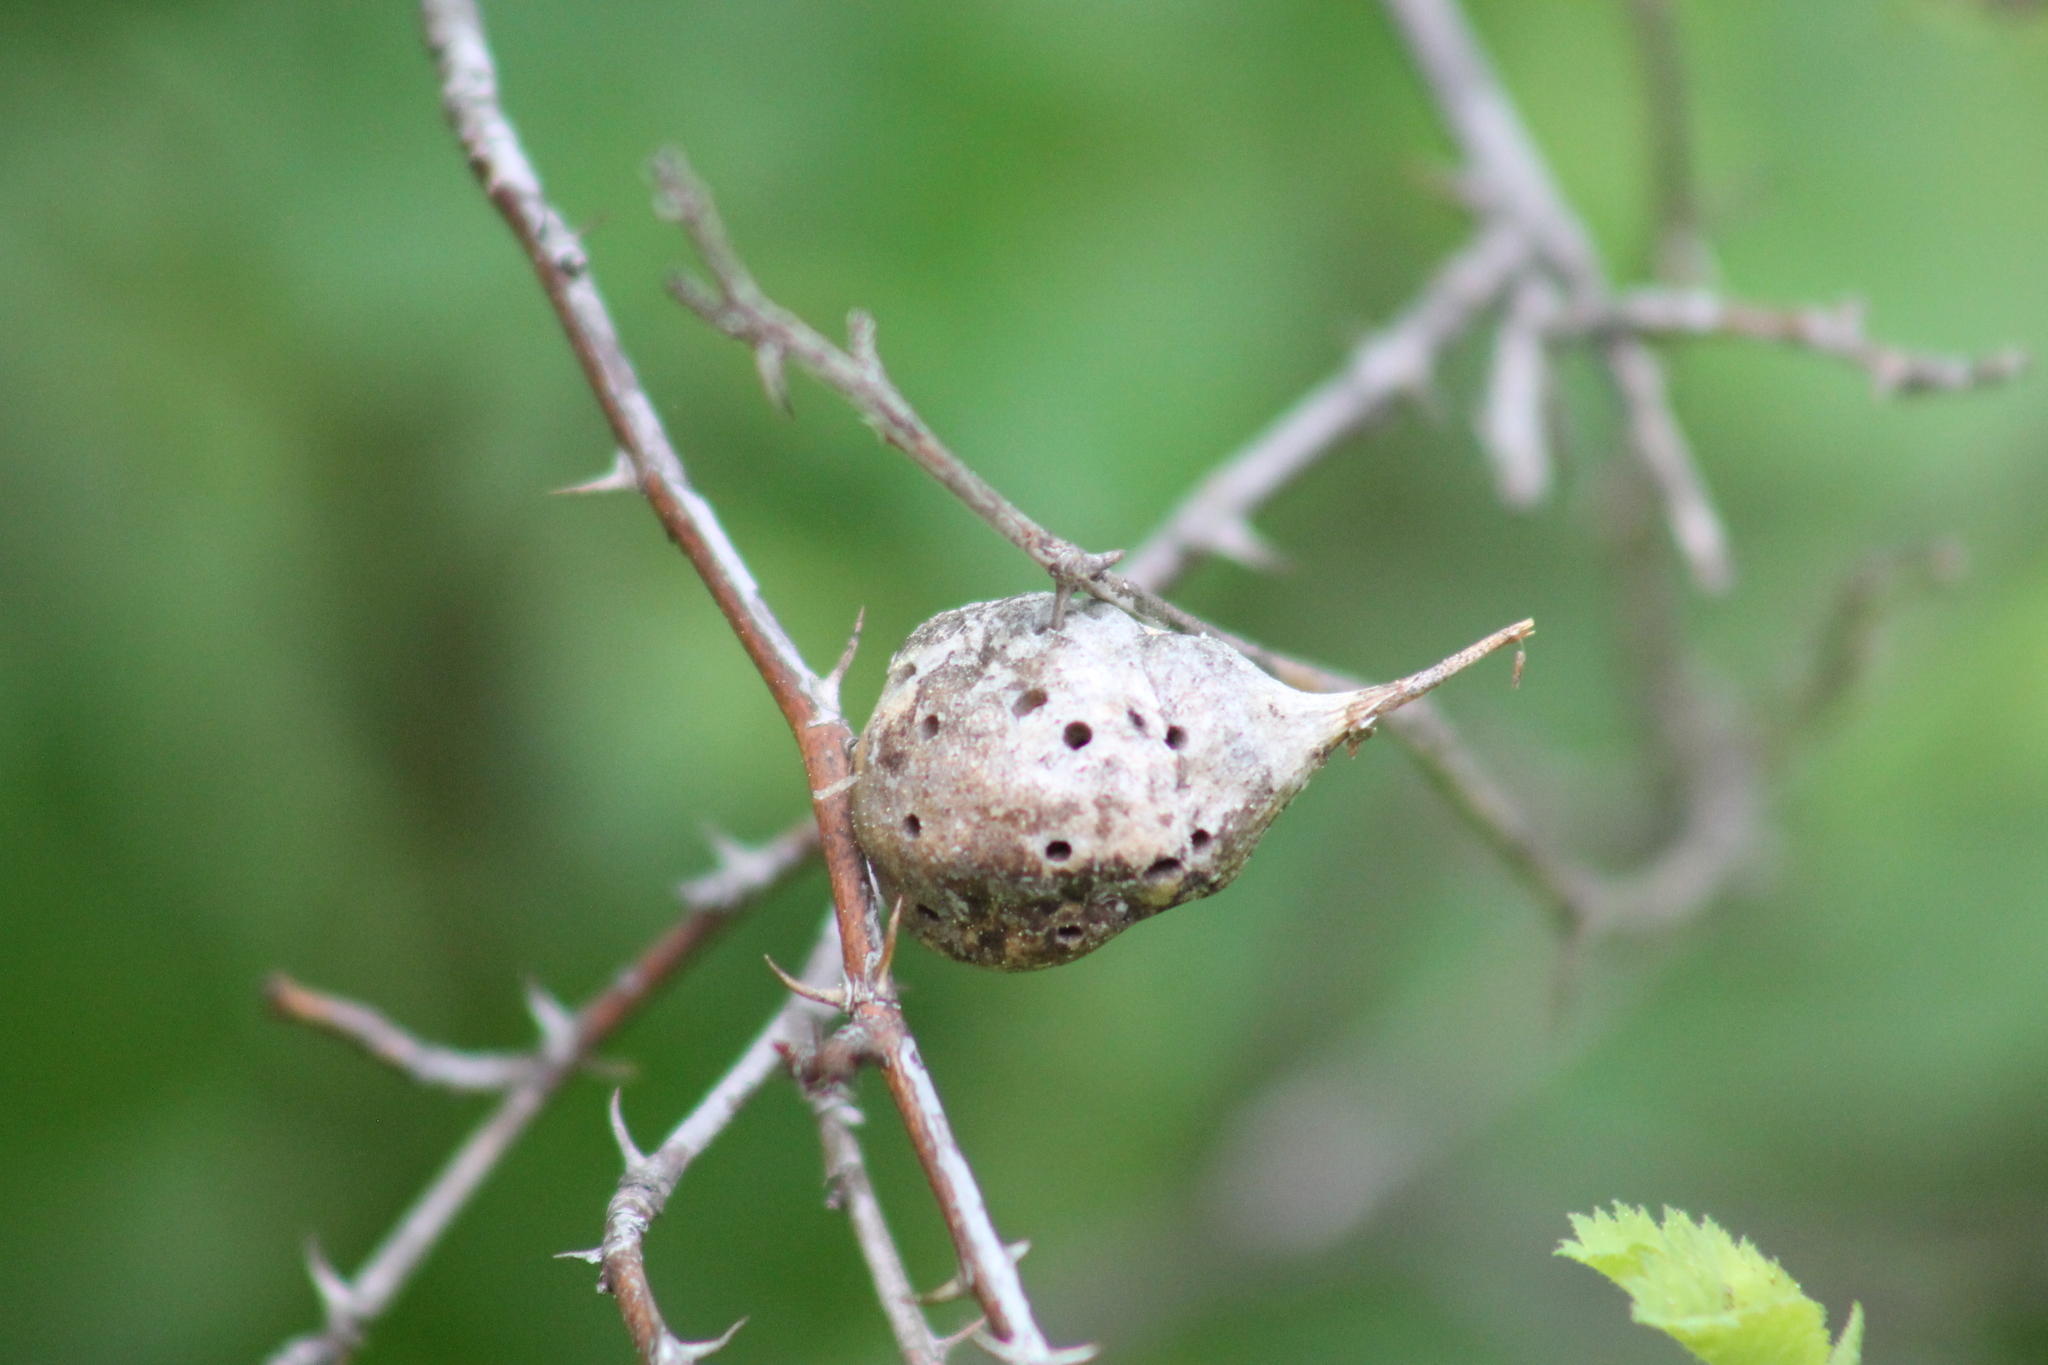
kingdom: Animalia
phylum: Arthropoda
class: Insecta
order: Hymenoptera
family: Cynipidae
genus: Diplolepis
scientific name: Diplolepis
